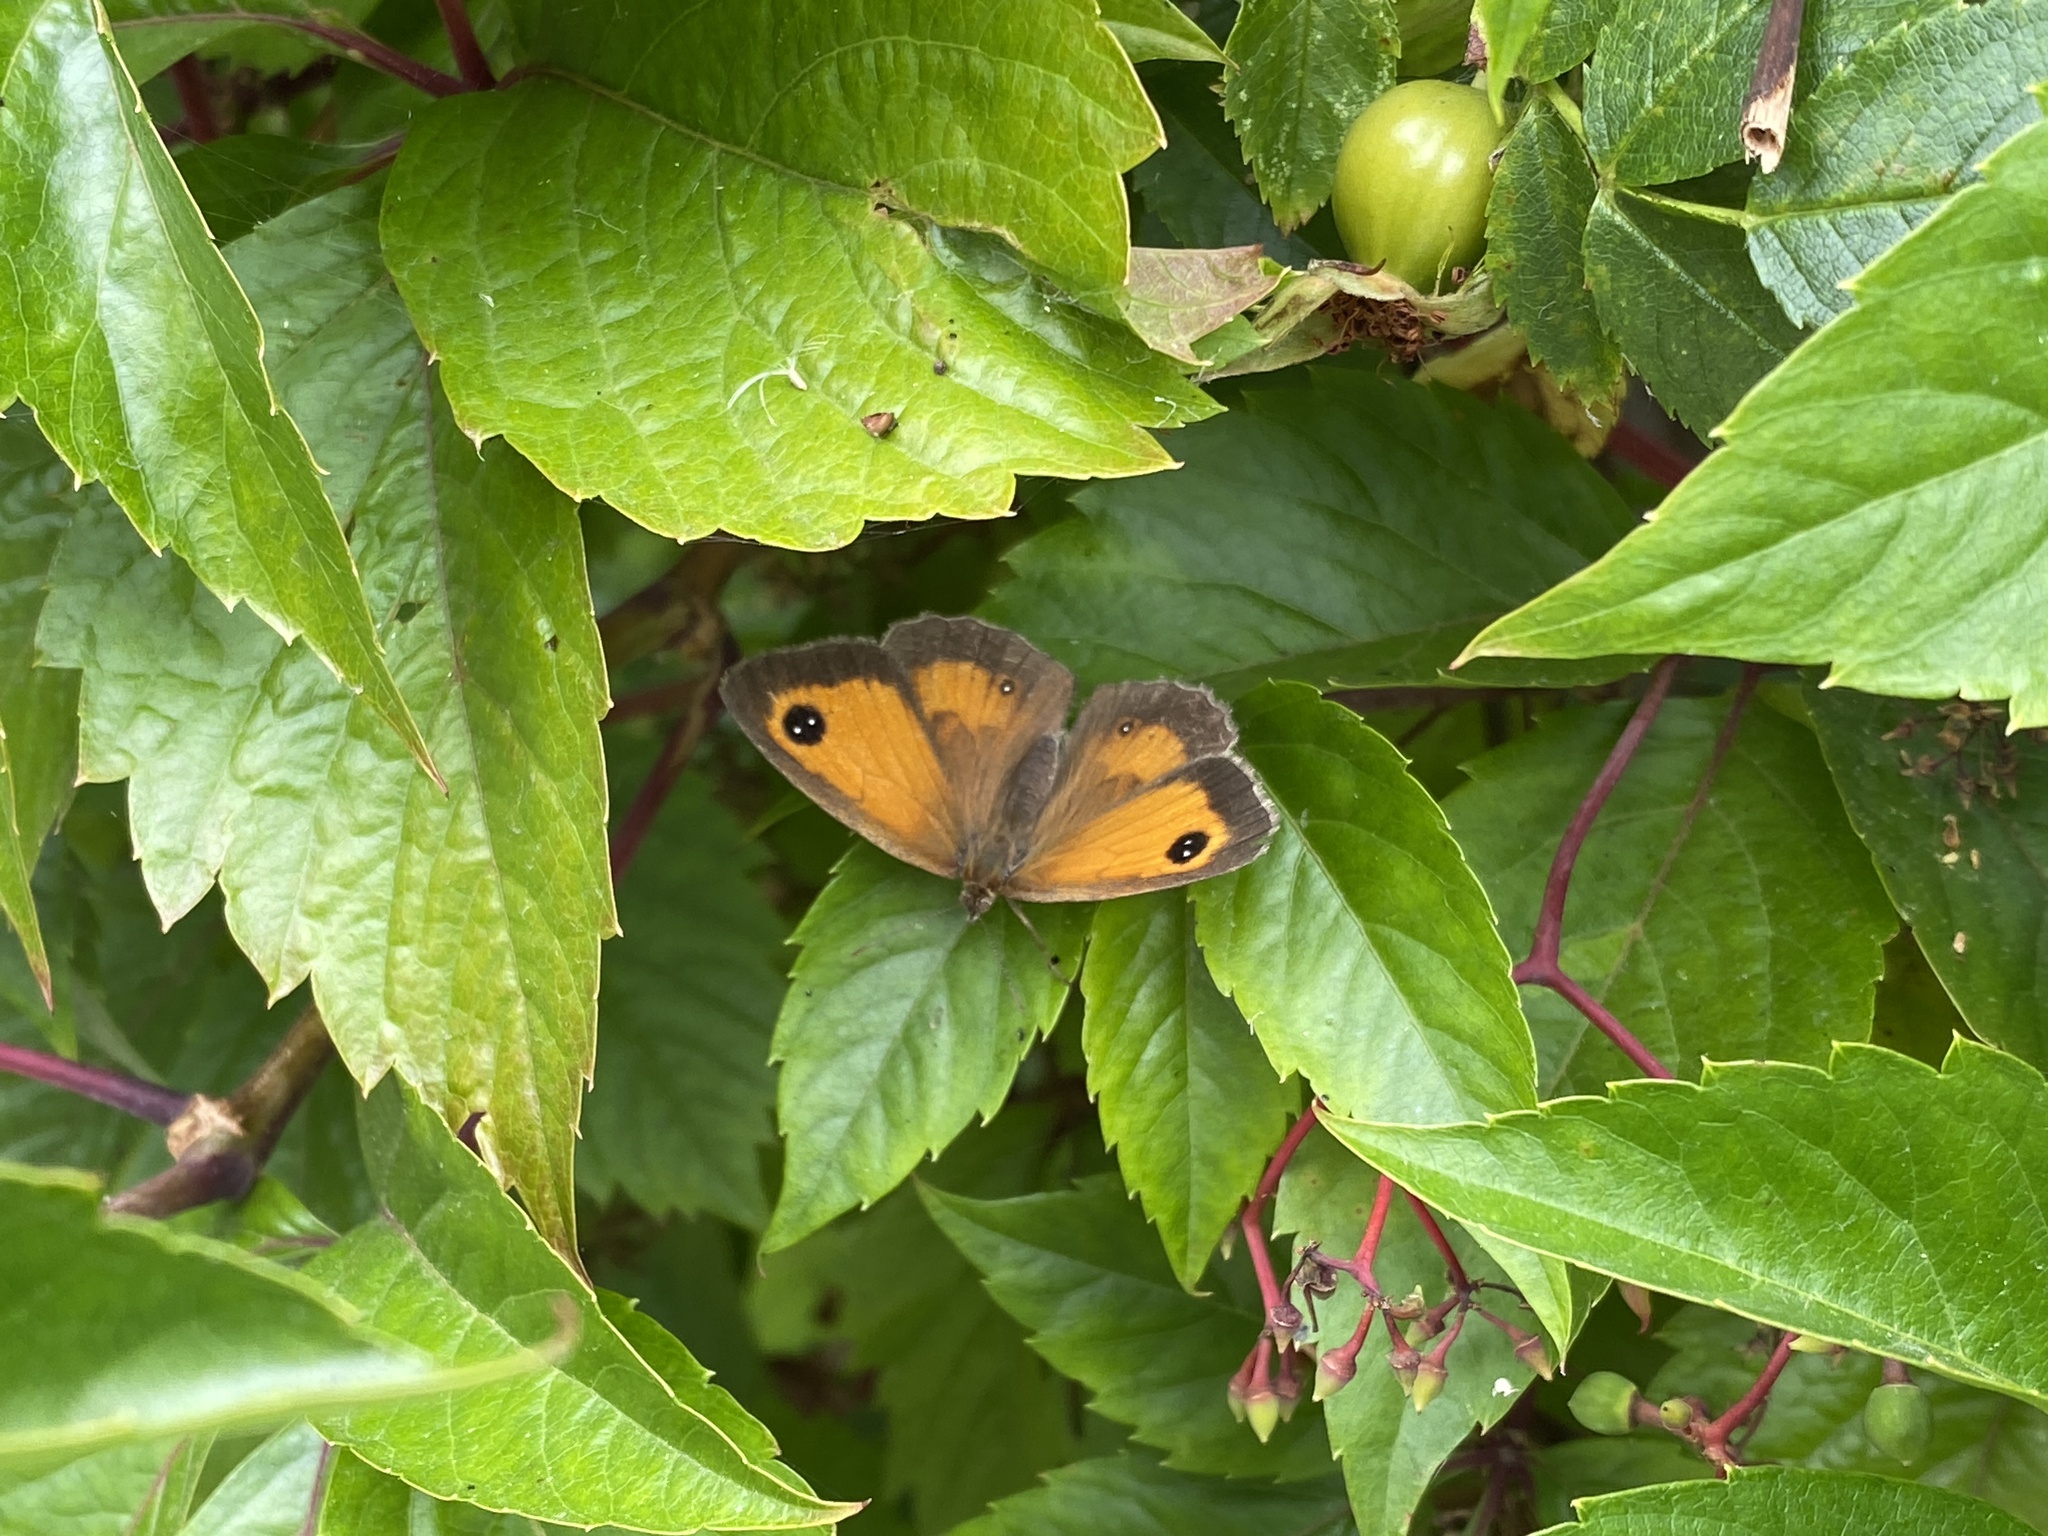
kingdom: Animalia
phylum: Arthropoda
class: Insecta
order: Lepidoptera
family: Nymphalidae
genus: Pyronia
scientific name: Pyronia tithonus
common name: Gatekeeper
